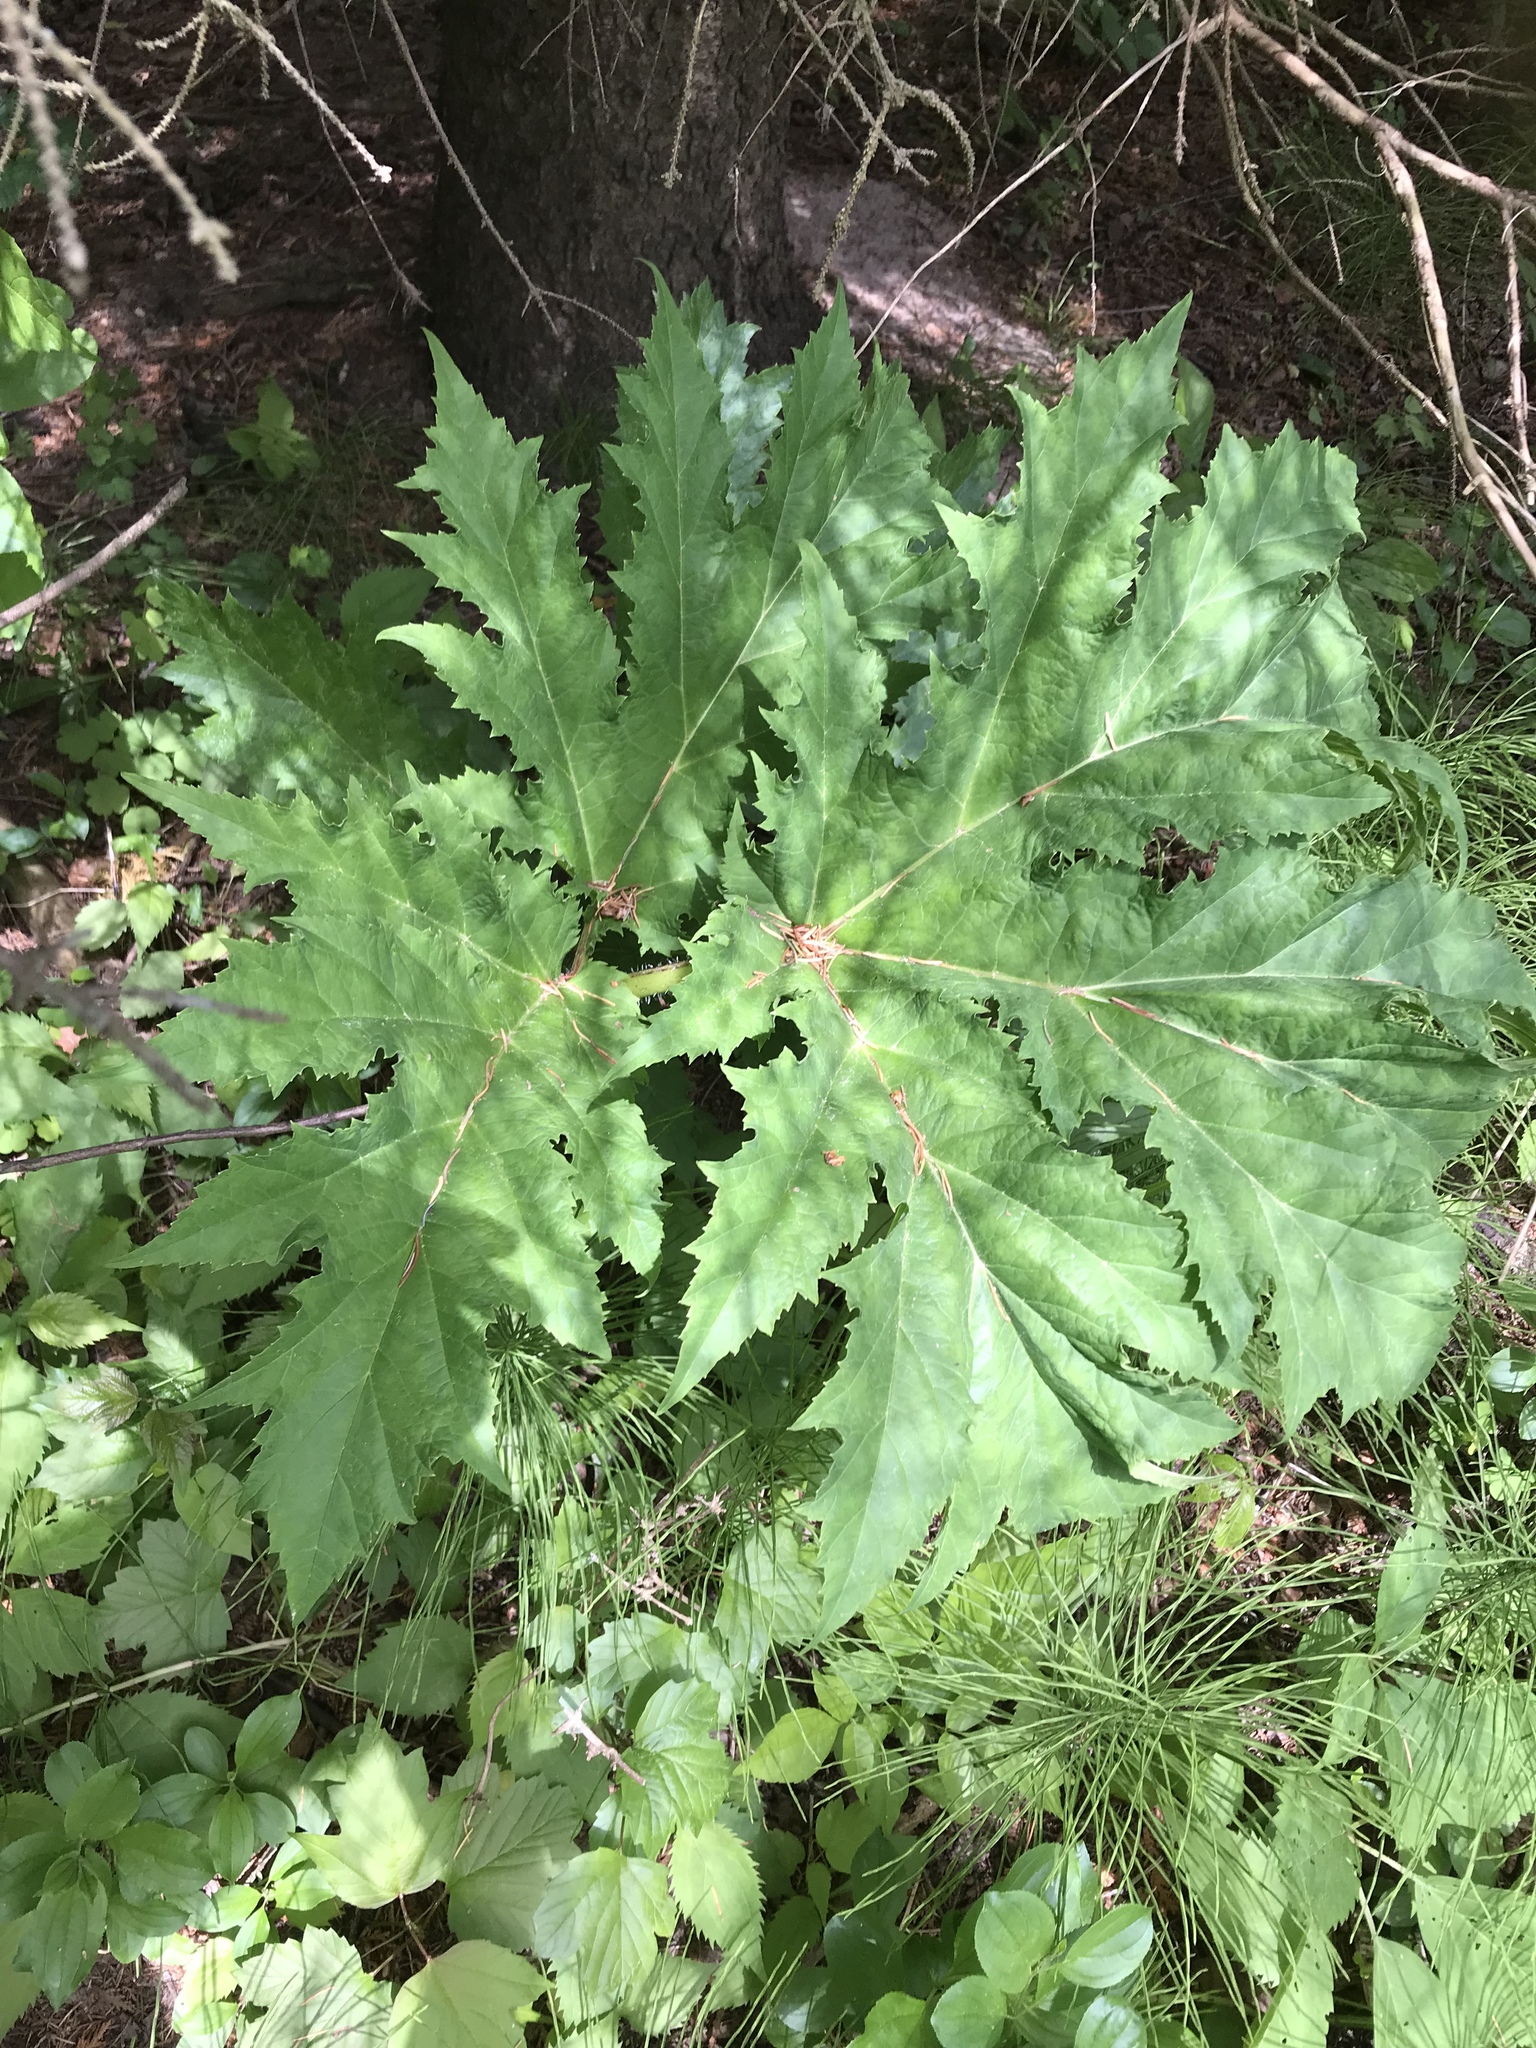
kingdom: Plantae
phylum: Tracheophyta
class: Magnoliopsida
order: Apiales
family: Apiaceae
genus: Heracleum
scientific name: Heracleum mantegazzianum
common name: Giant hogweed
